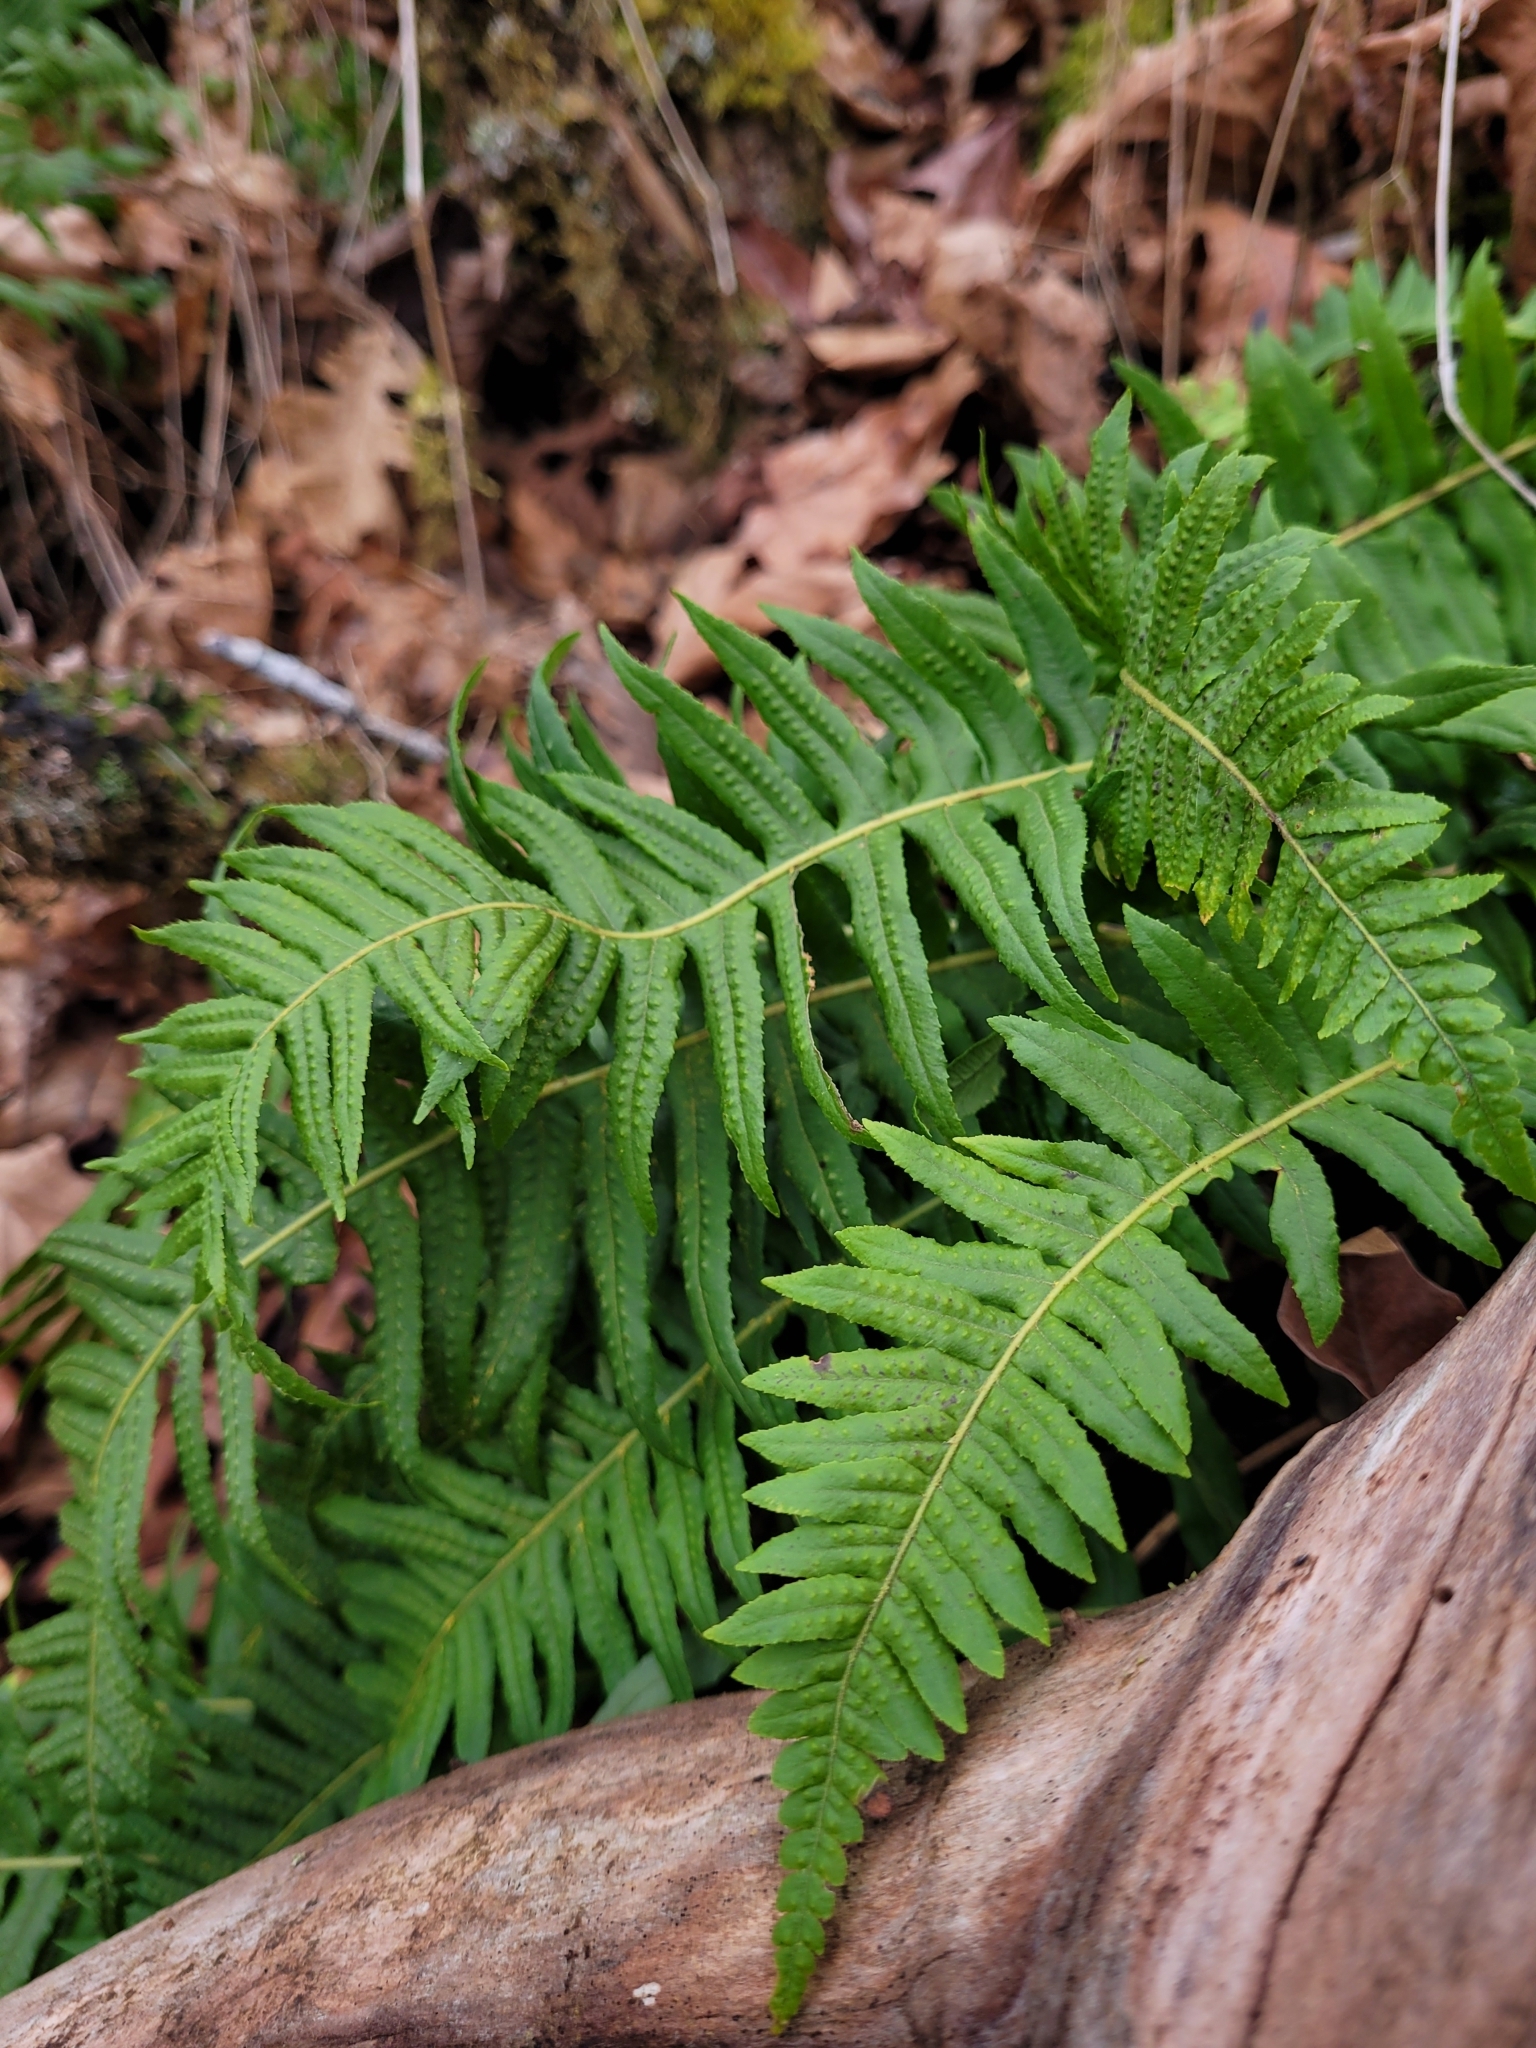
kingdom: Plantae
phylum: Tracheophyta
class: Polypodiopsida
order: Polypodiales
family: Polypodiaceae
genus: Polypodium
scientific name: Polypodium glycyrrhiza
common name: Licorice fern
